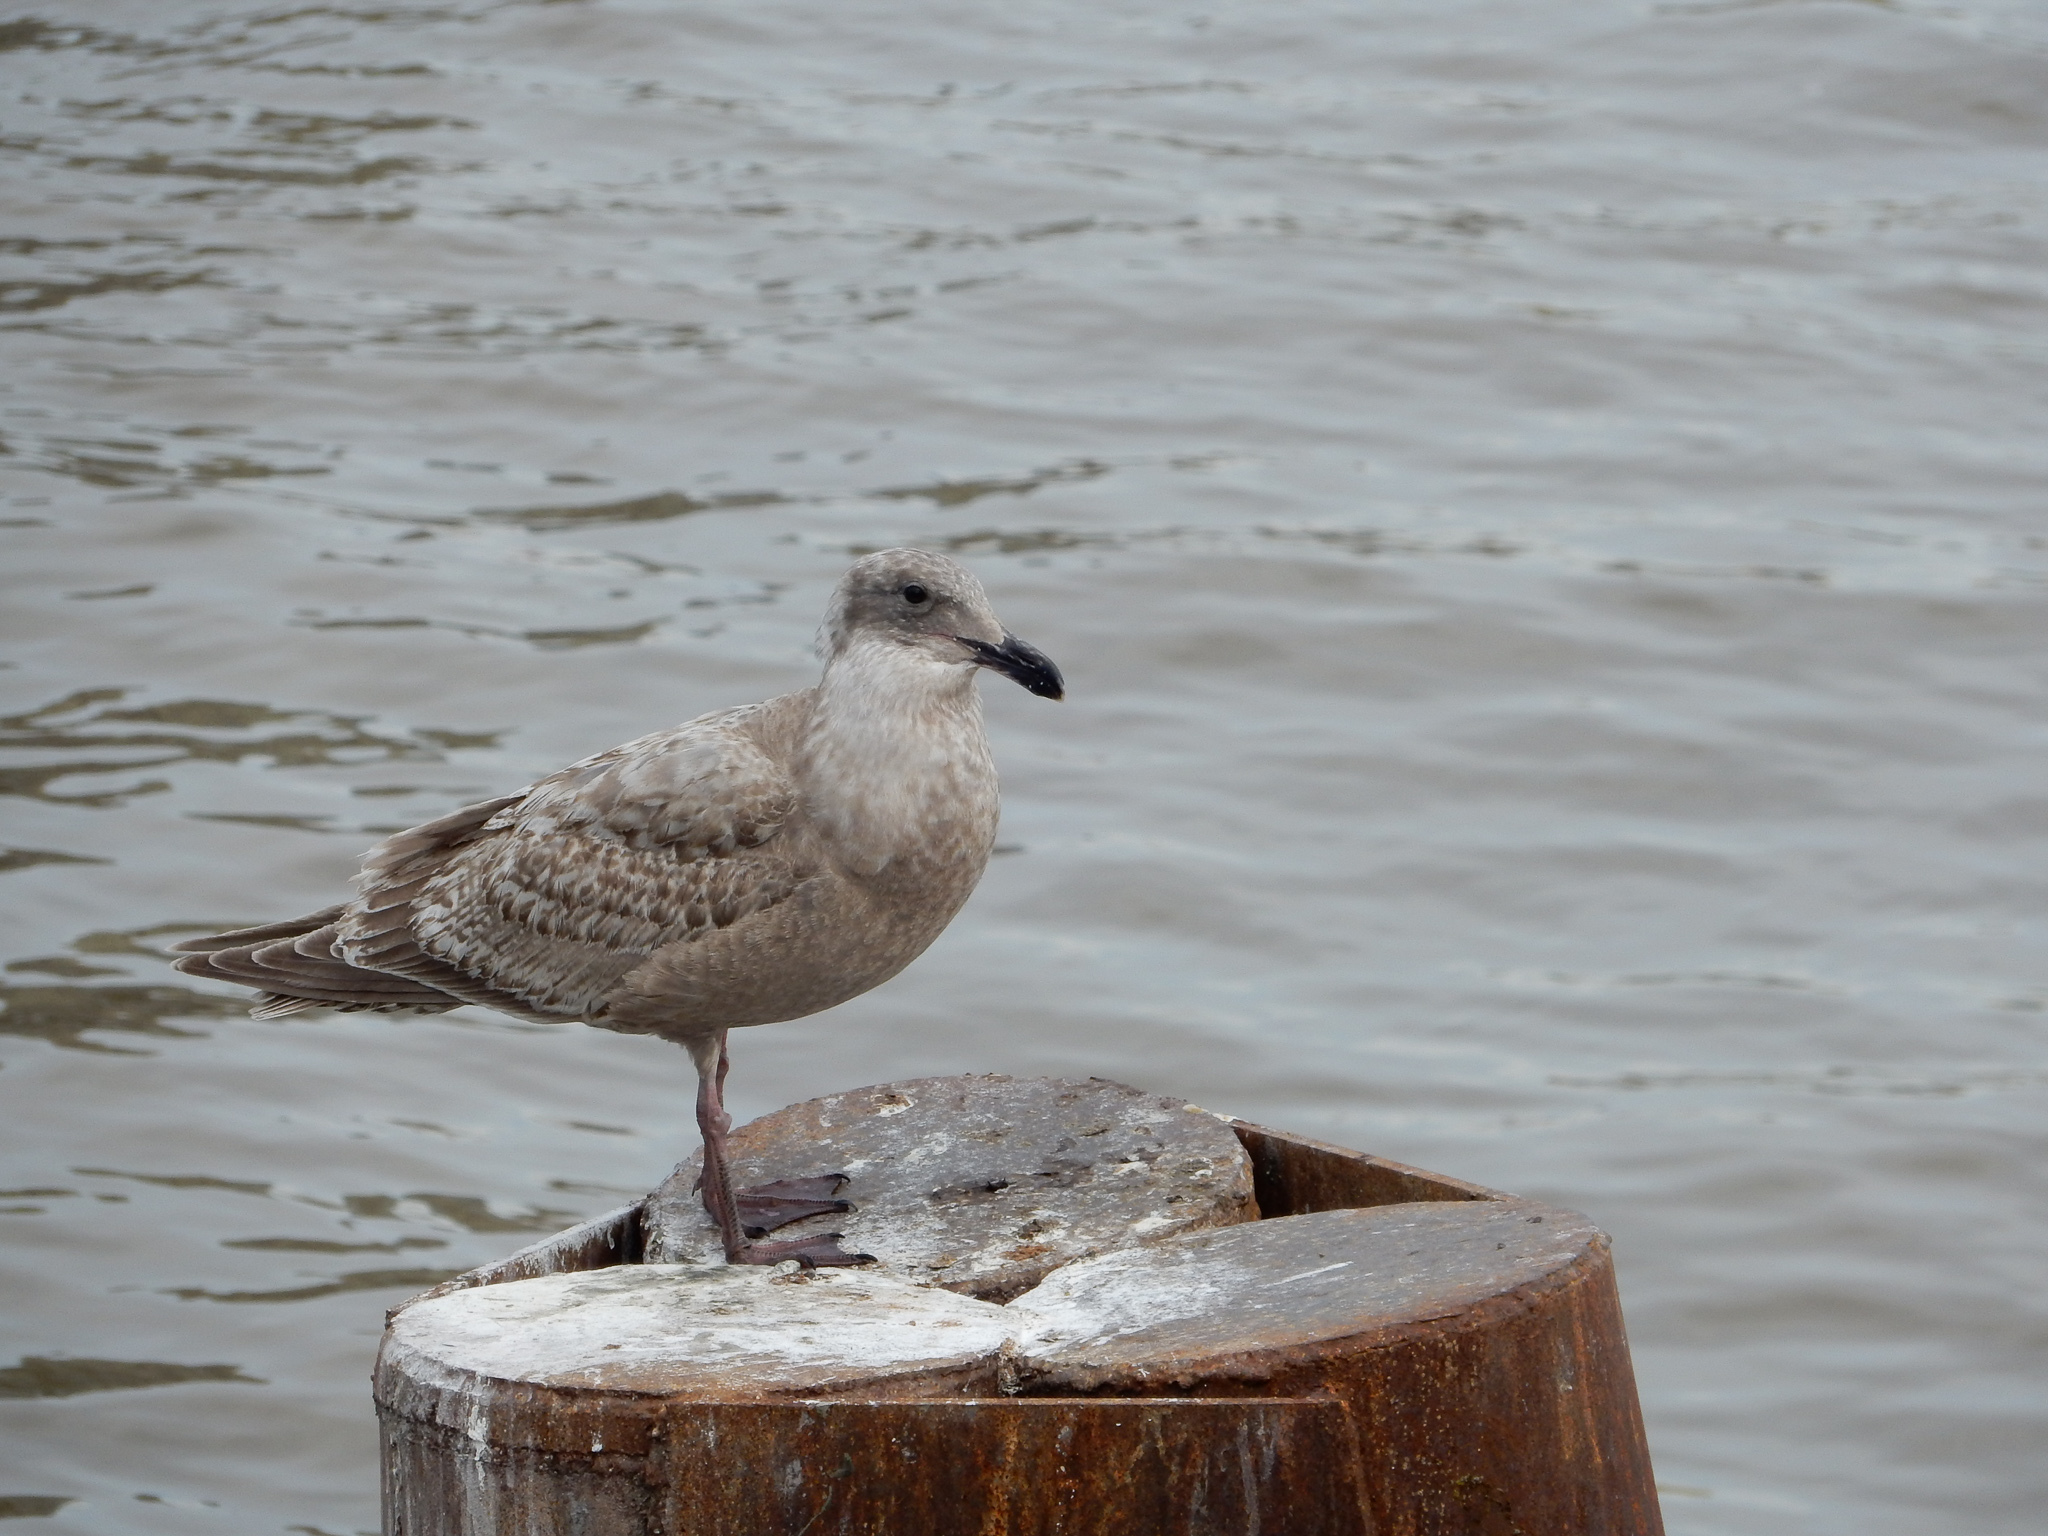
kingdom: Animalia
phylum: Chordata
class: Aves
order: Charadriiformes
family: Laridae
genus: Larus
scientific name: Larus
